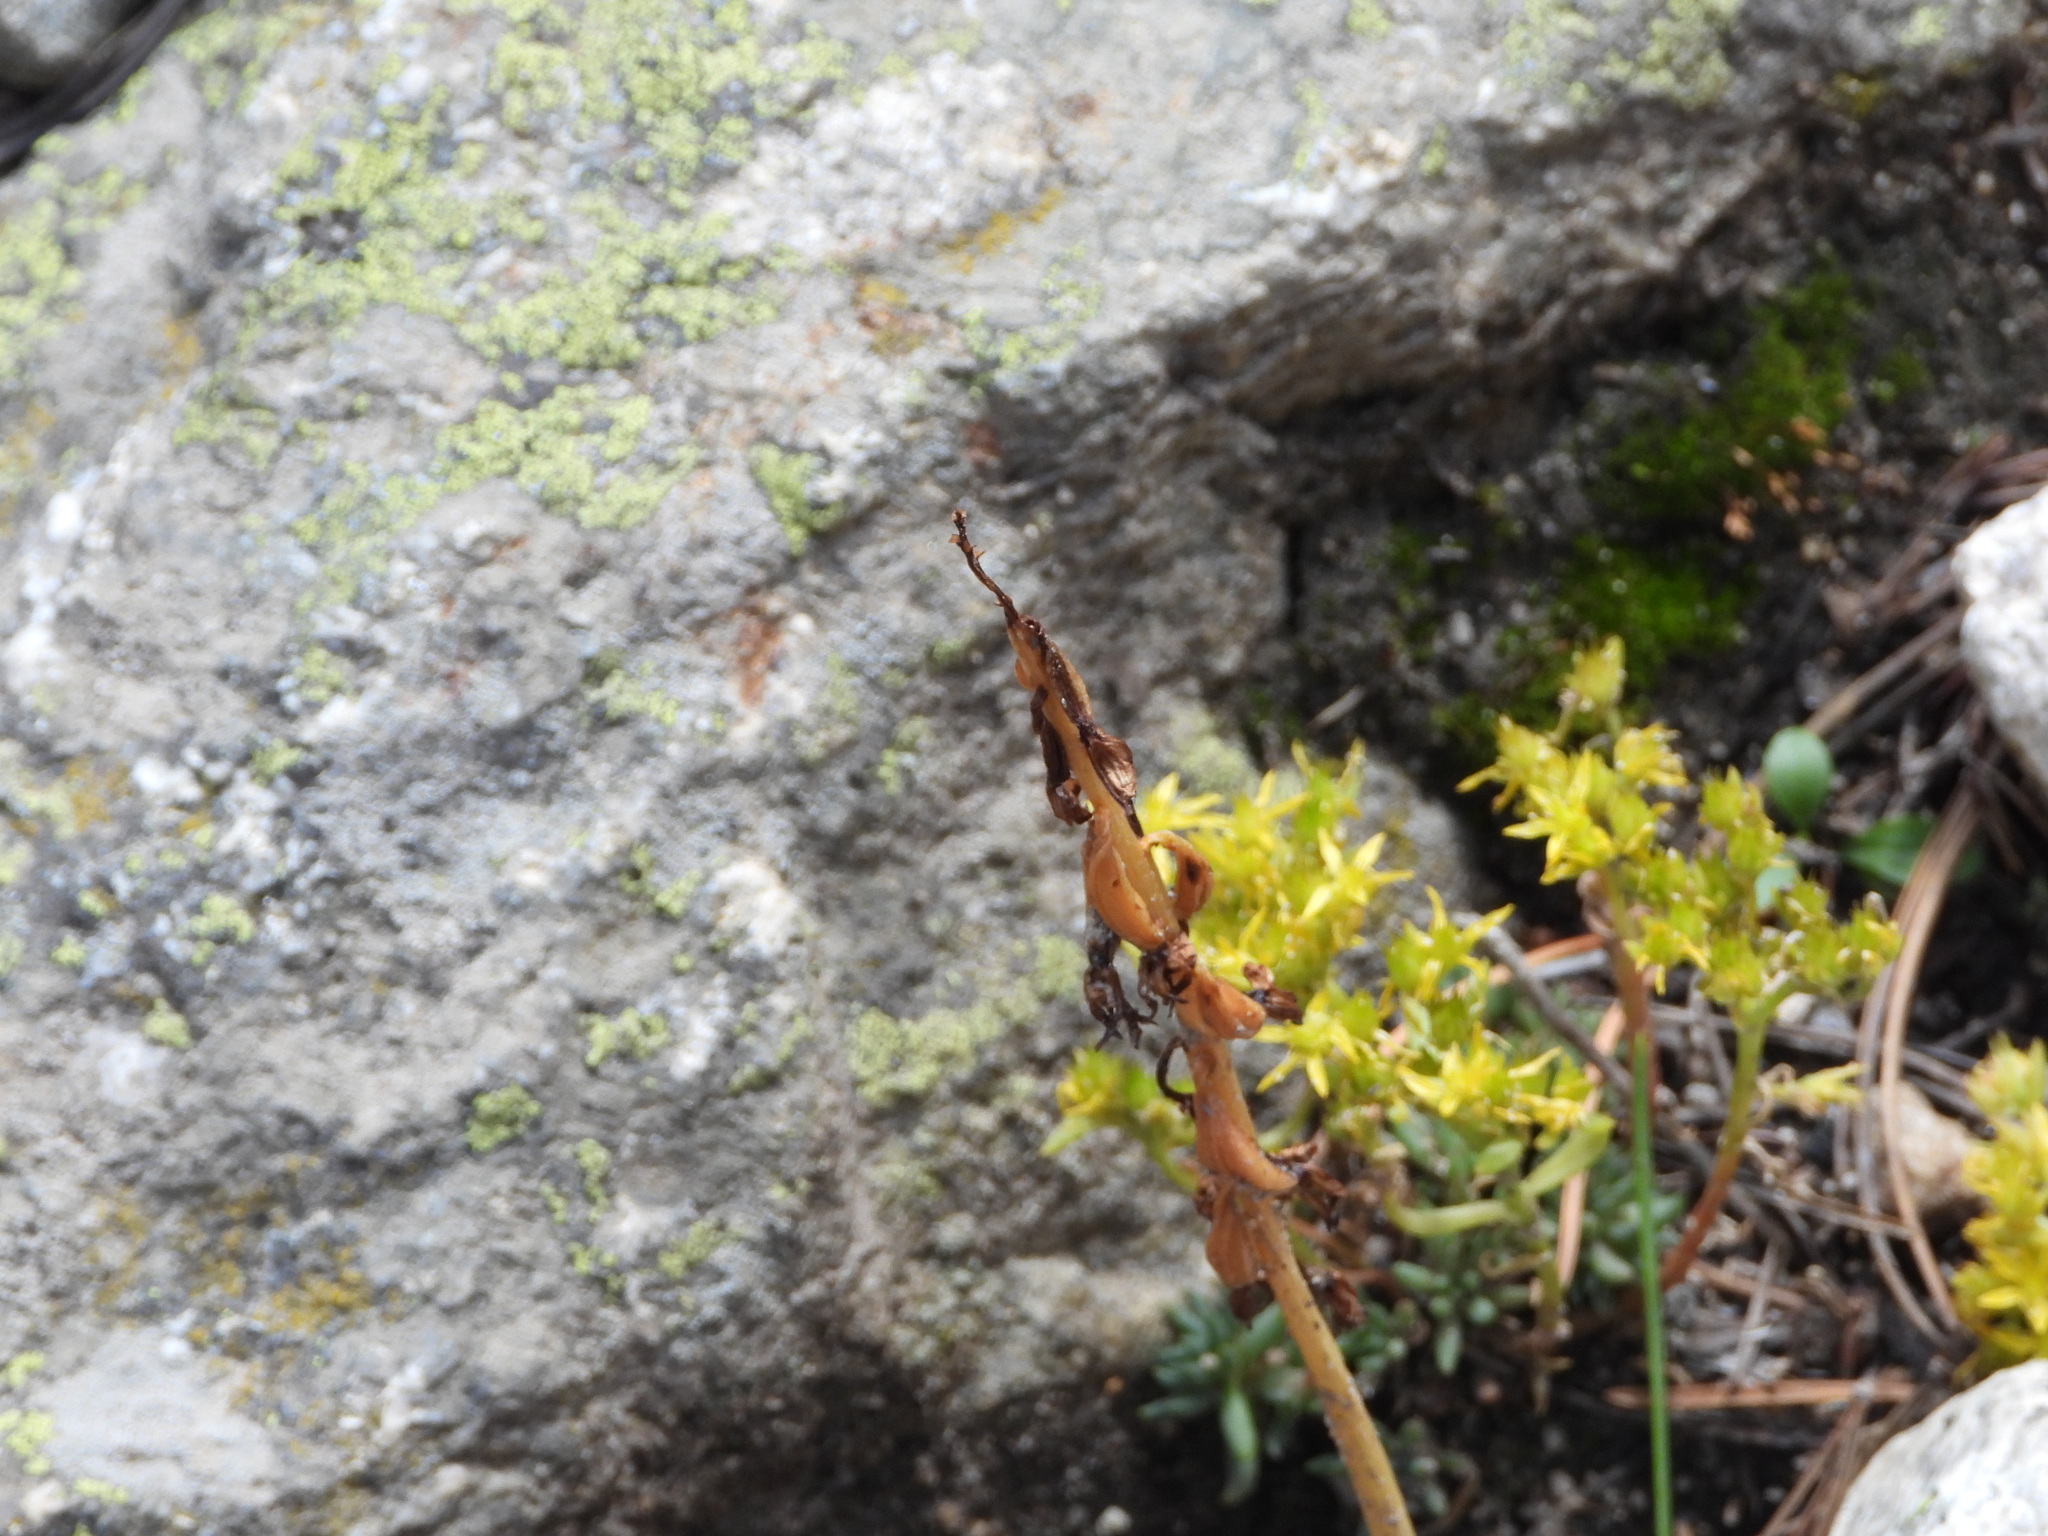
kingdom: Plantae
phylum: Tracheophyta
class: Magnoliopsida
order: Saxifragales
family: Crassulaceae
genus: Sedum
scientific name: Sedum lanceolatum
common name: Common stonecrop
